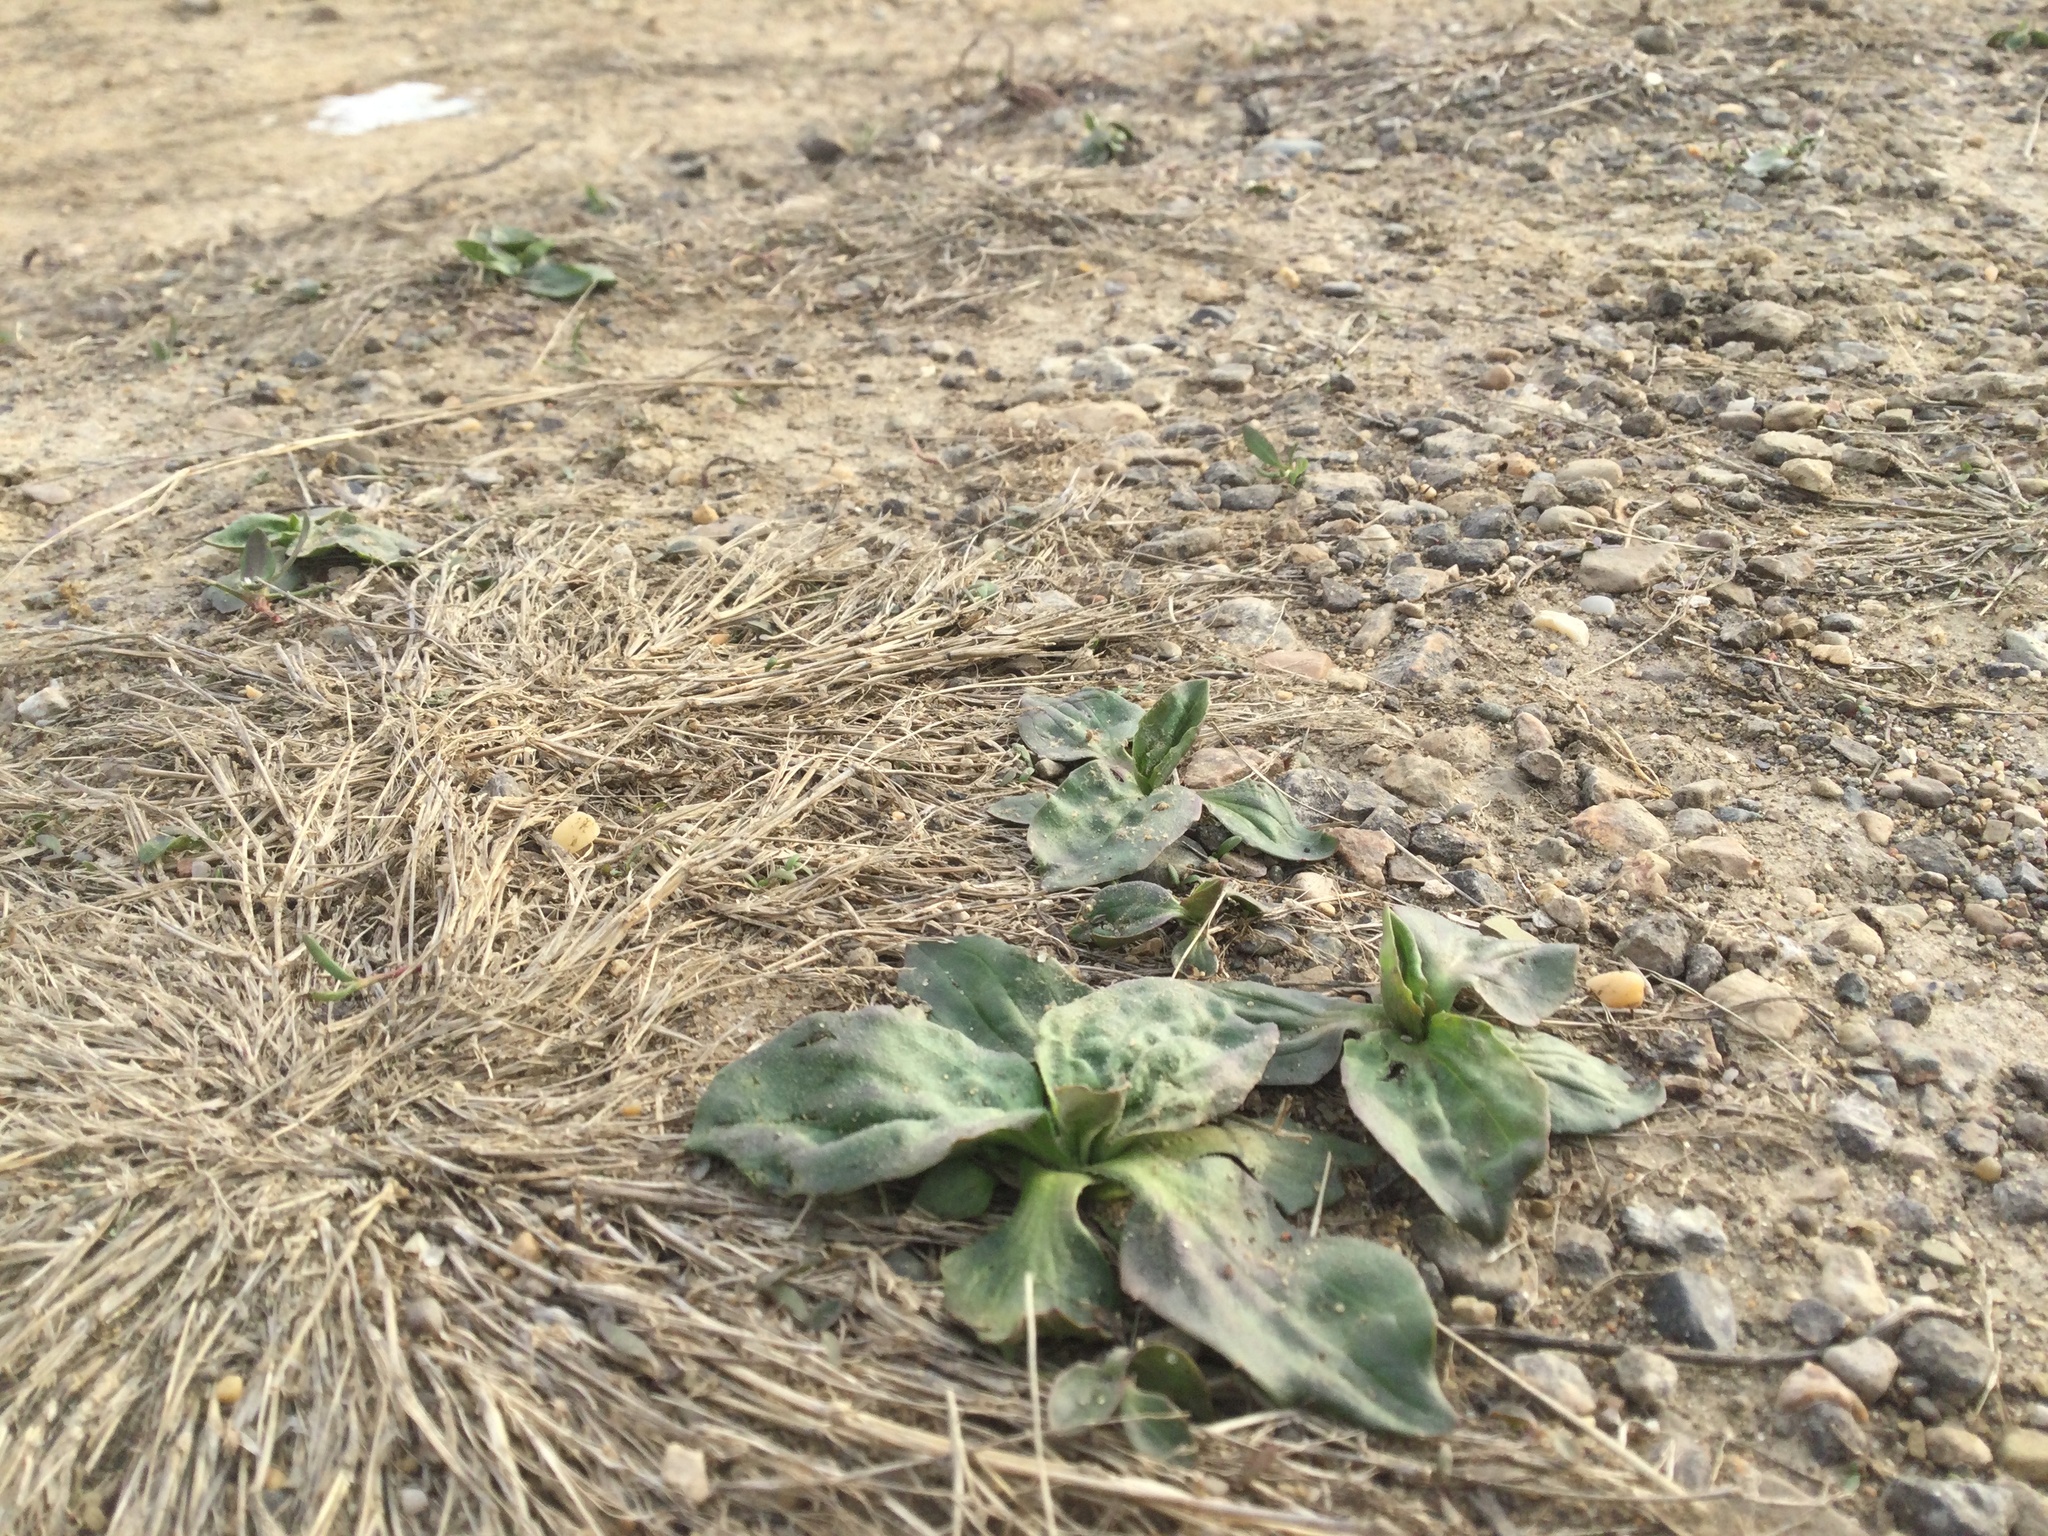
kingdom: Plantae
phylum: Tracheophyta
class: Magnoliopsida
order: Lamiales
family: Plantaginaceae
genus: Plantago
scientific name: Plantago major
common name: Common plantain
